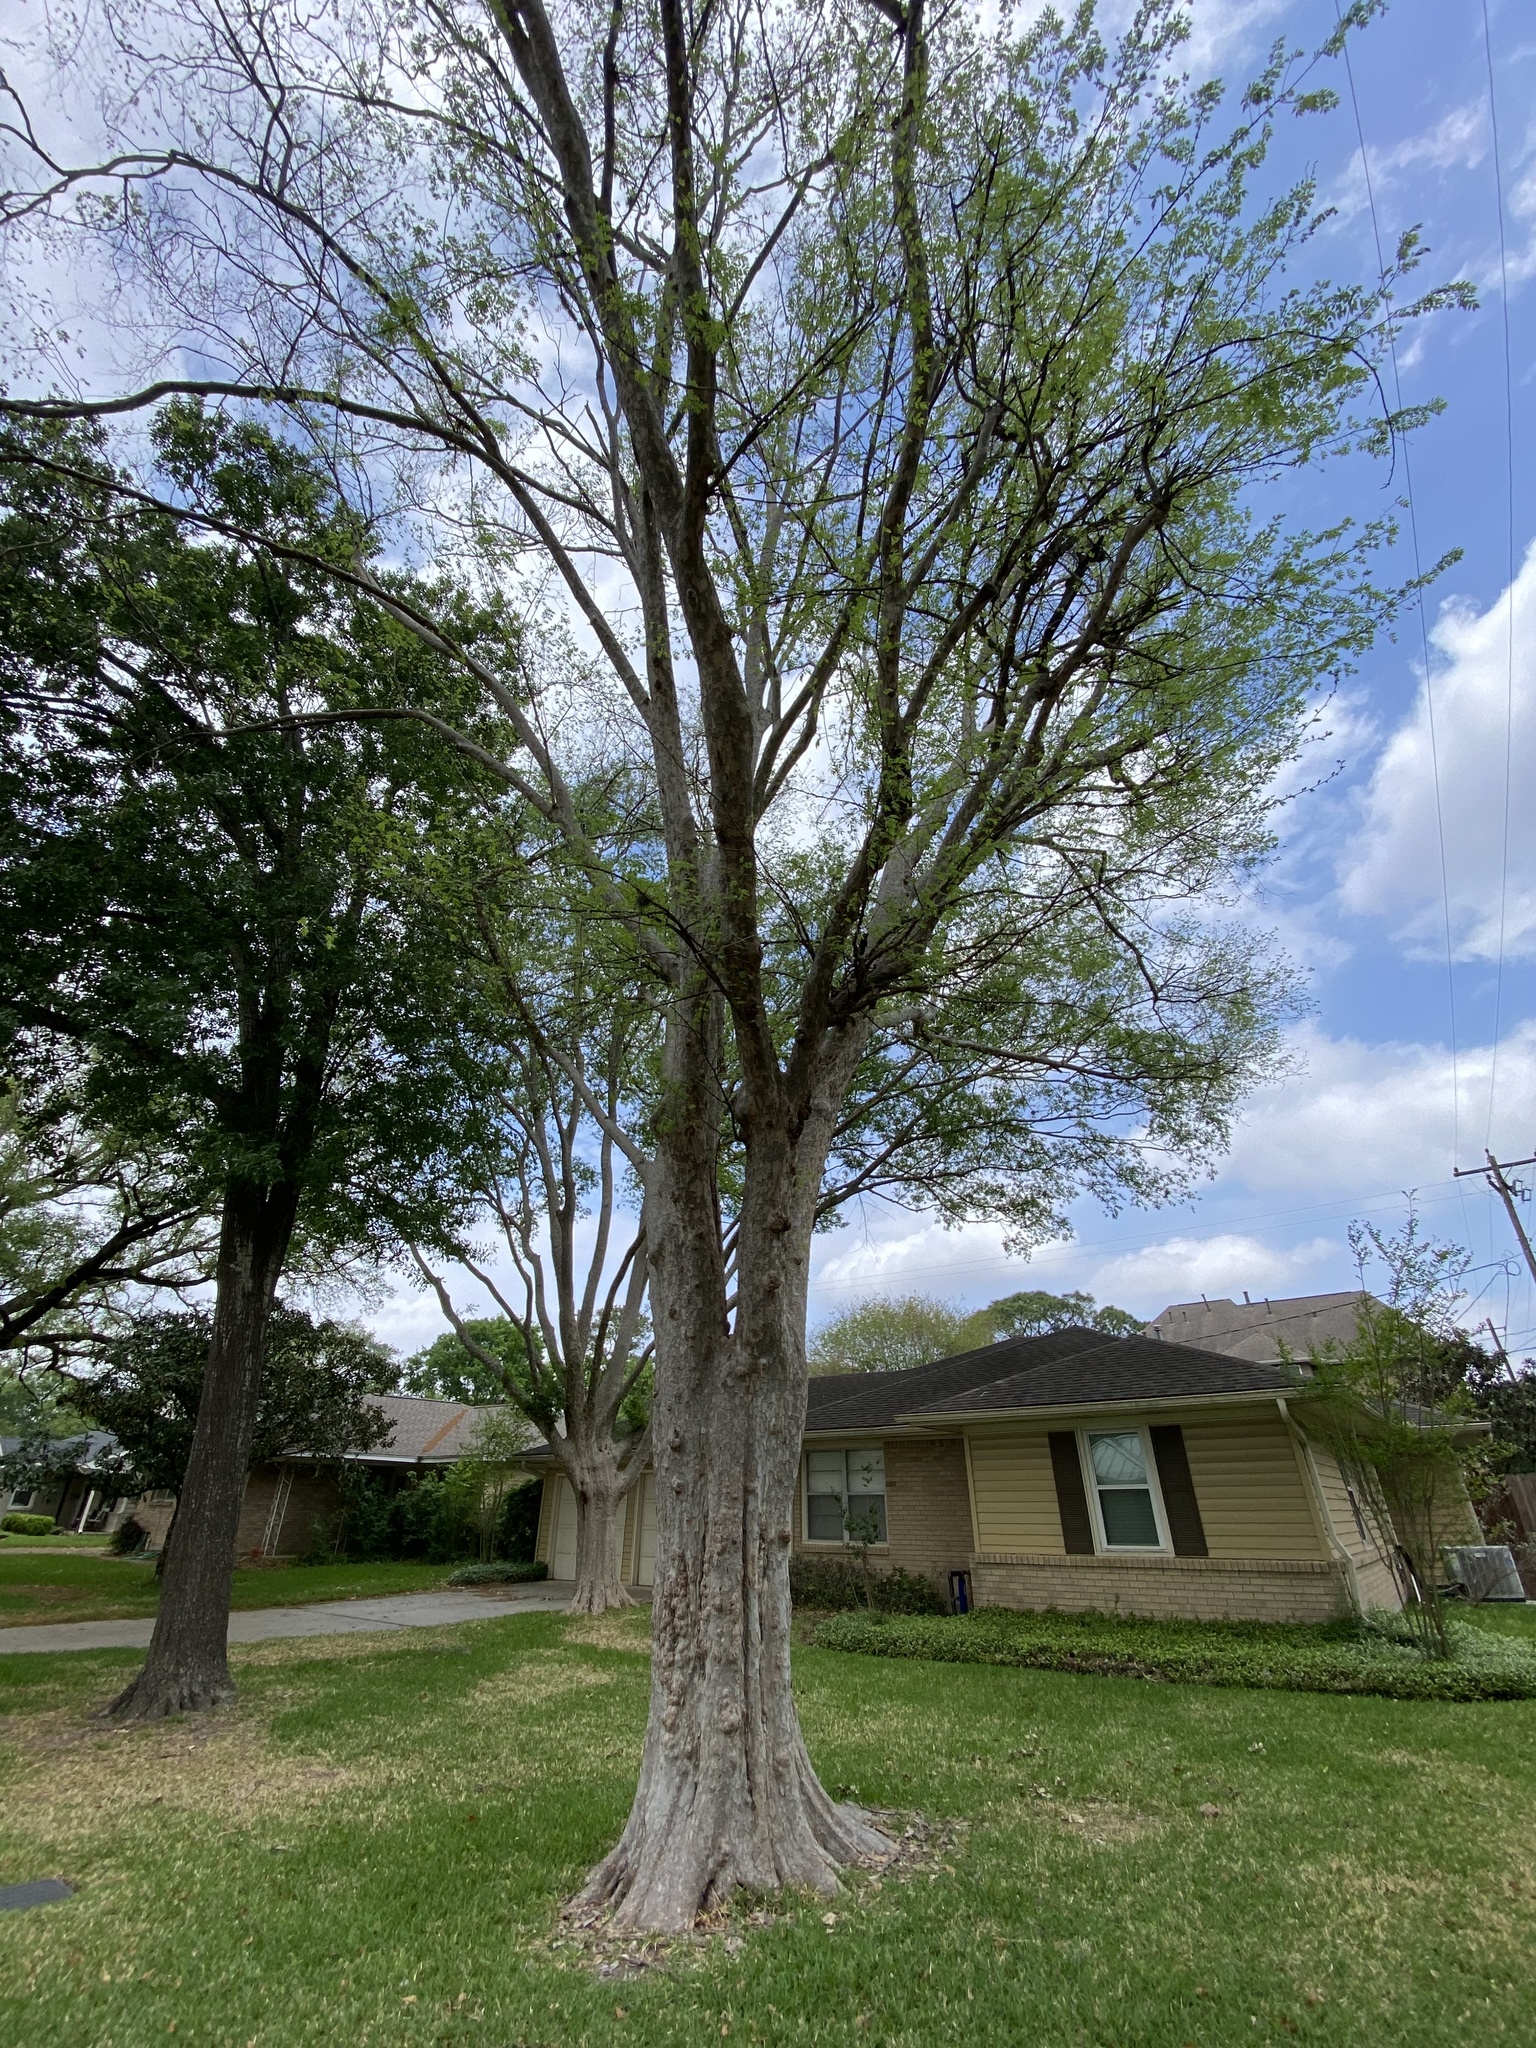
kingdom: Plantae
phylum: Tracheophyta
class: Magnoliopsida
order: Rosales
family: Ulmaceae
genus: Ulmus
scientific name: Ulmus parvifolia
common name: Chinese elm
